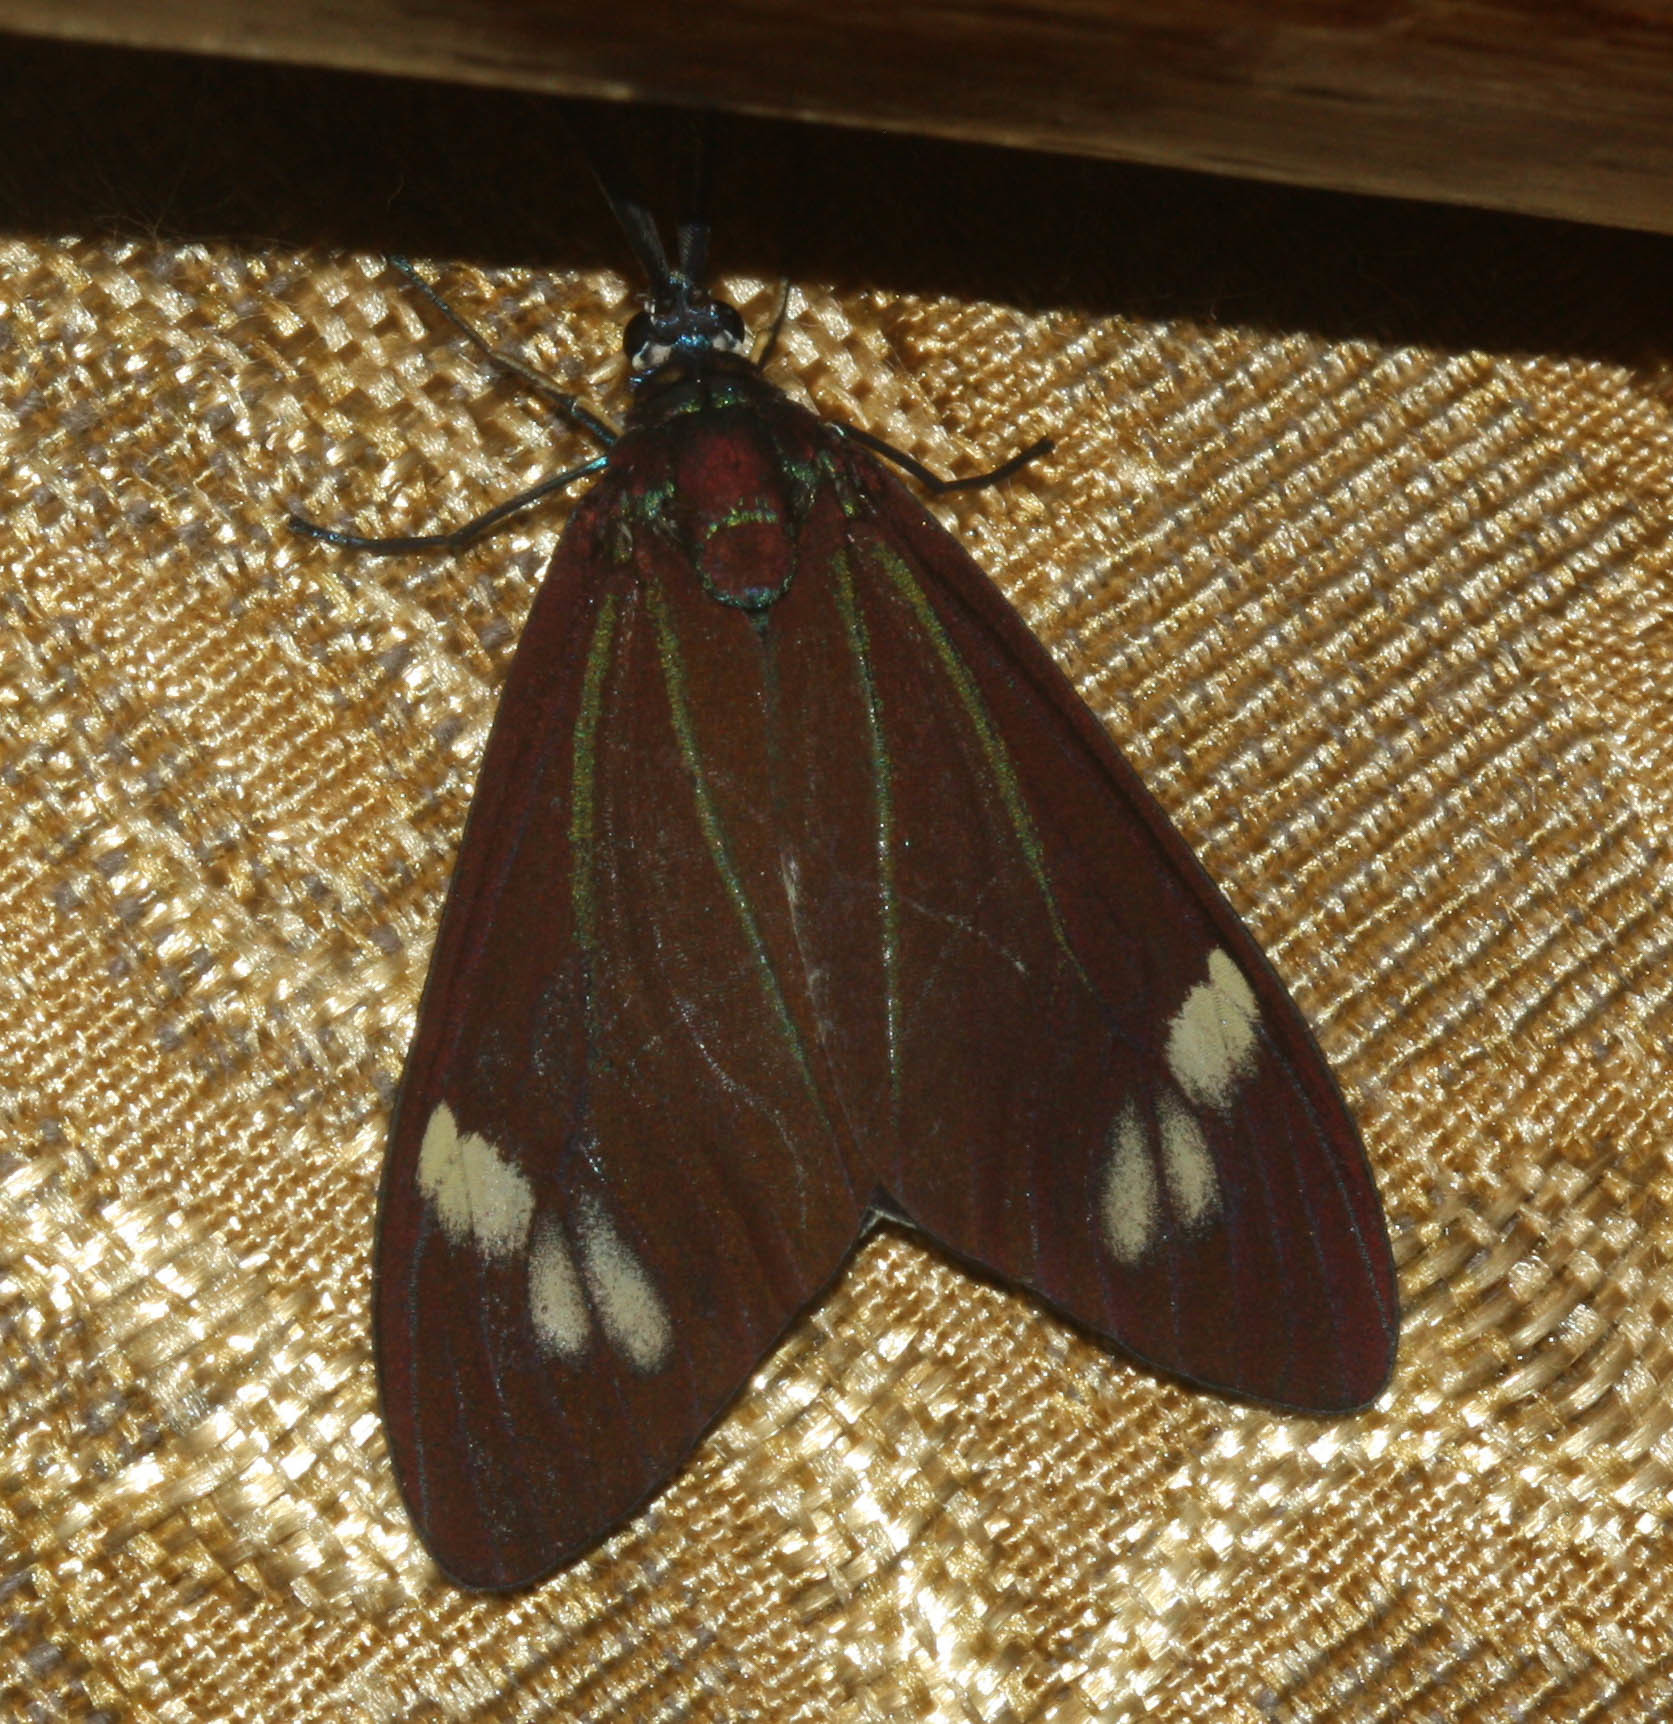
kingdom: Animalia
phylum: Arthropoda
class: Insecta
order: Lepidoptera
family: Zygaenidae
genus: Cyclosia
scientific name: Cyclosia papilionaris
